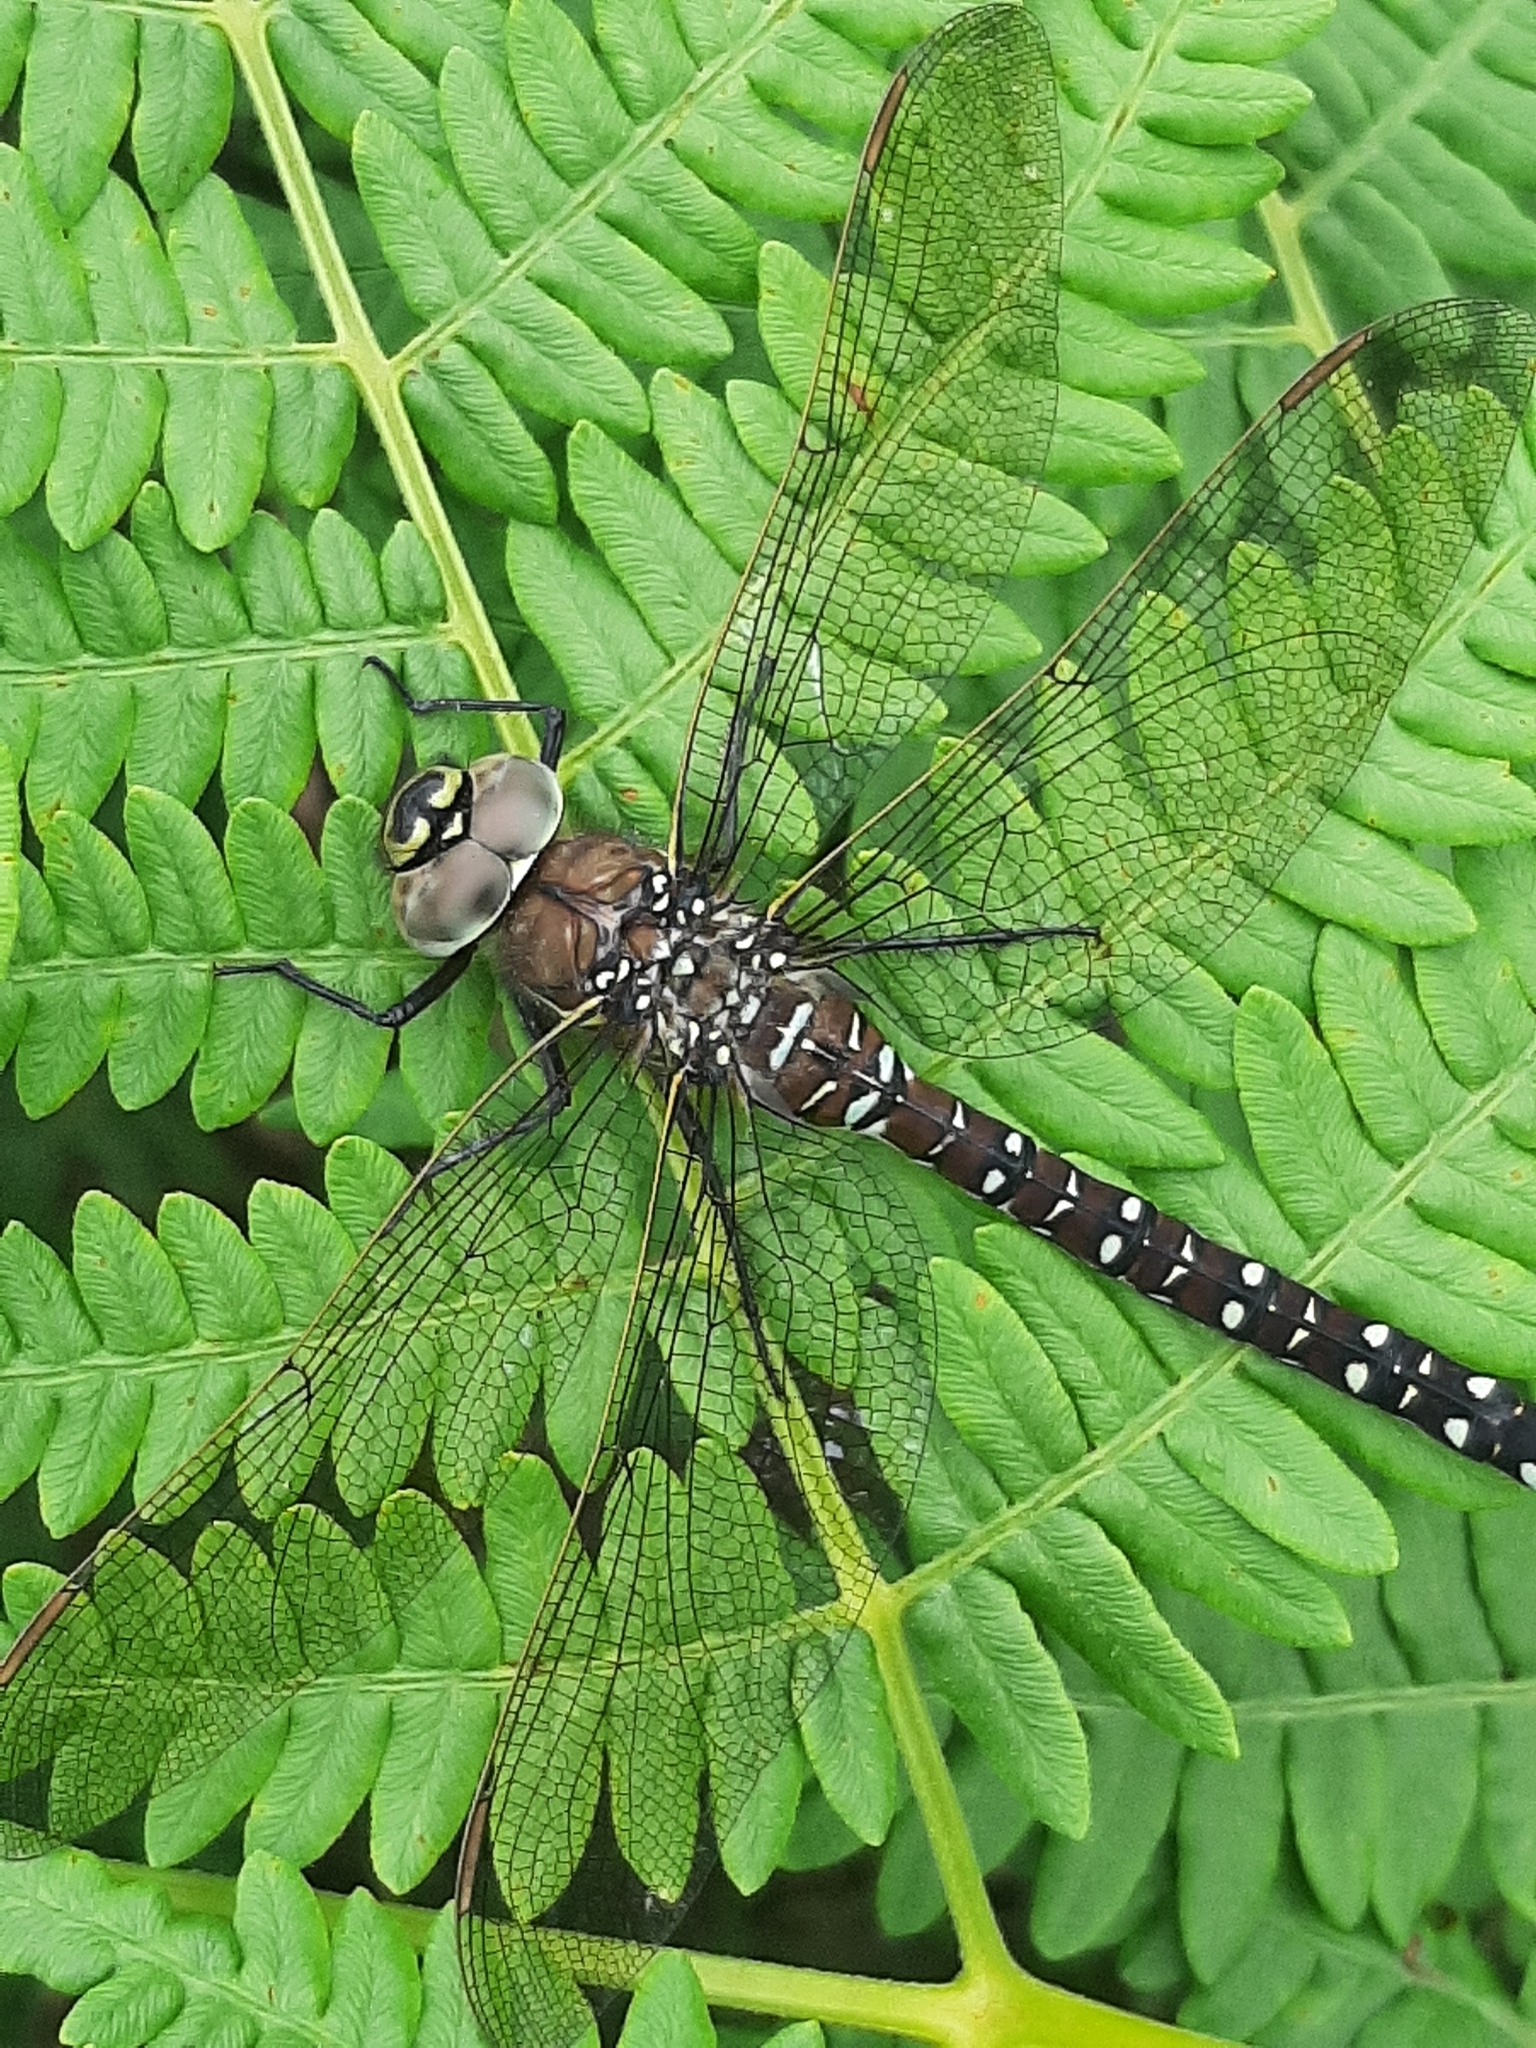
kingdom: Animalia
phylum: Arthropoda
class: Insecta
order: Odonata
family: Aeshnidae
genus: Aeshna
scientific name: Aeshna juncea
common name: Moorland hawker
